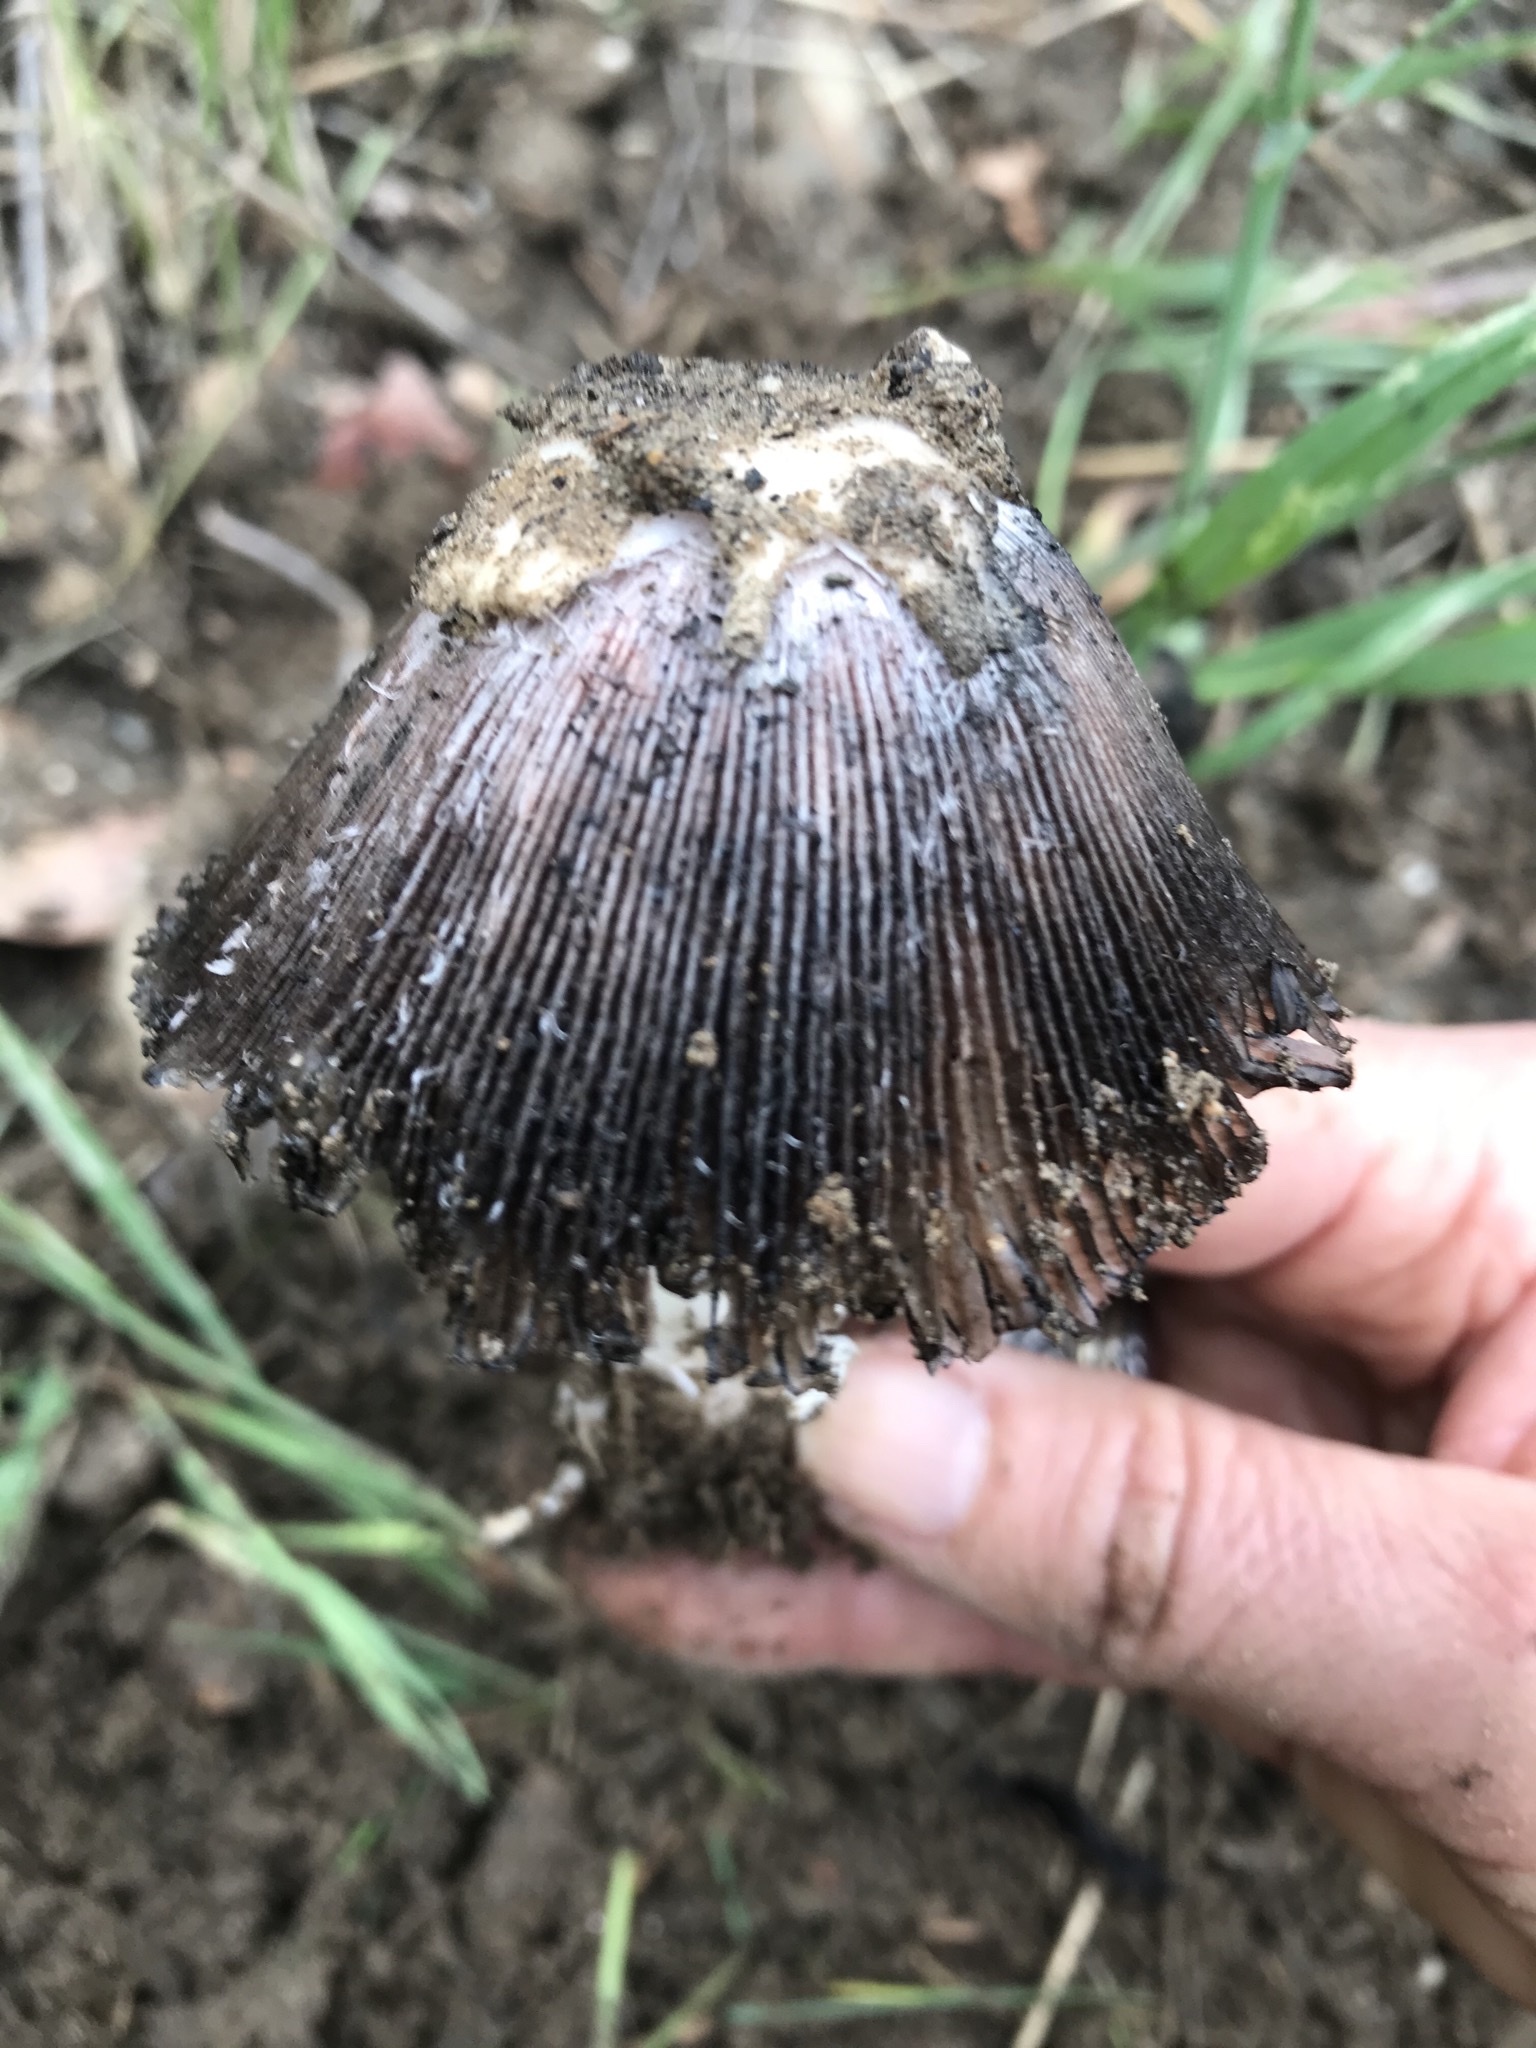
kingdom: Fungi
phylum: Basidiomycota
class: Agaricomycetes
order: Agaricales
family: Agaricaceae
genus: Coprinus
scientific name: Coprinus calyptratus
